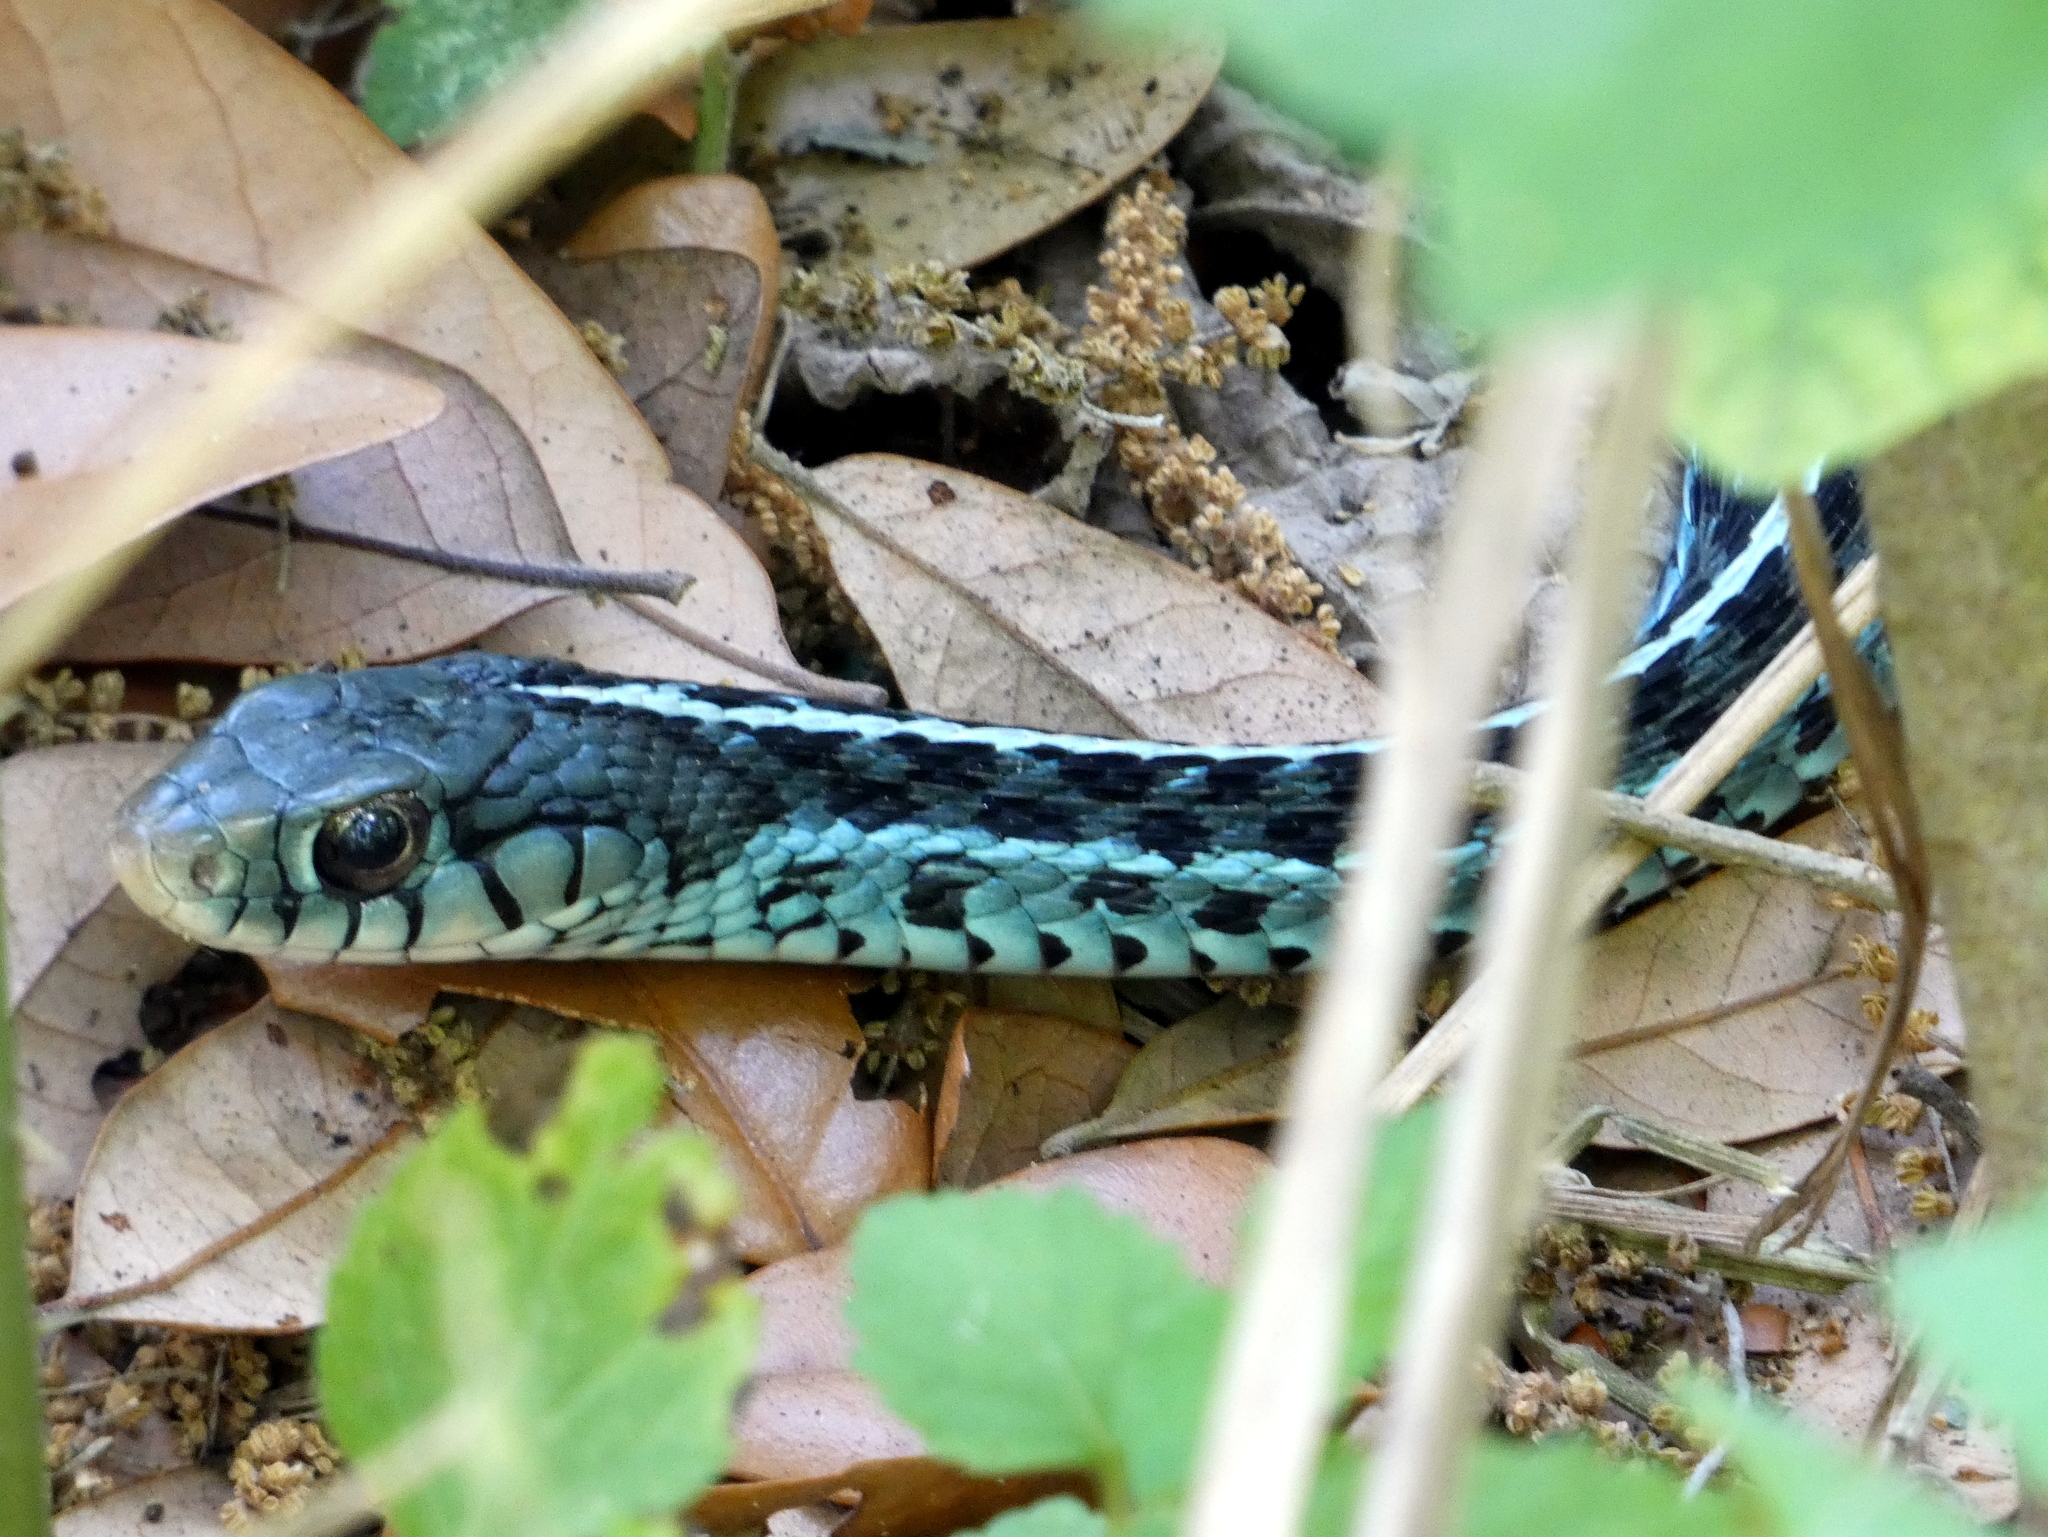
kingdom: Animalia
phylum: Chordata
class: Squamata
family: Colubridae
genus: Thamnophis
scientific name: Thamnophis sirtalis
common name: Common garter snake
